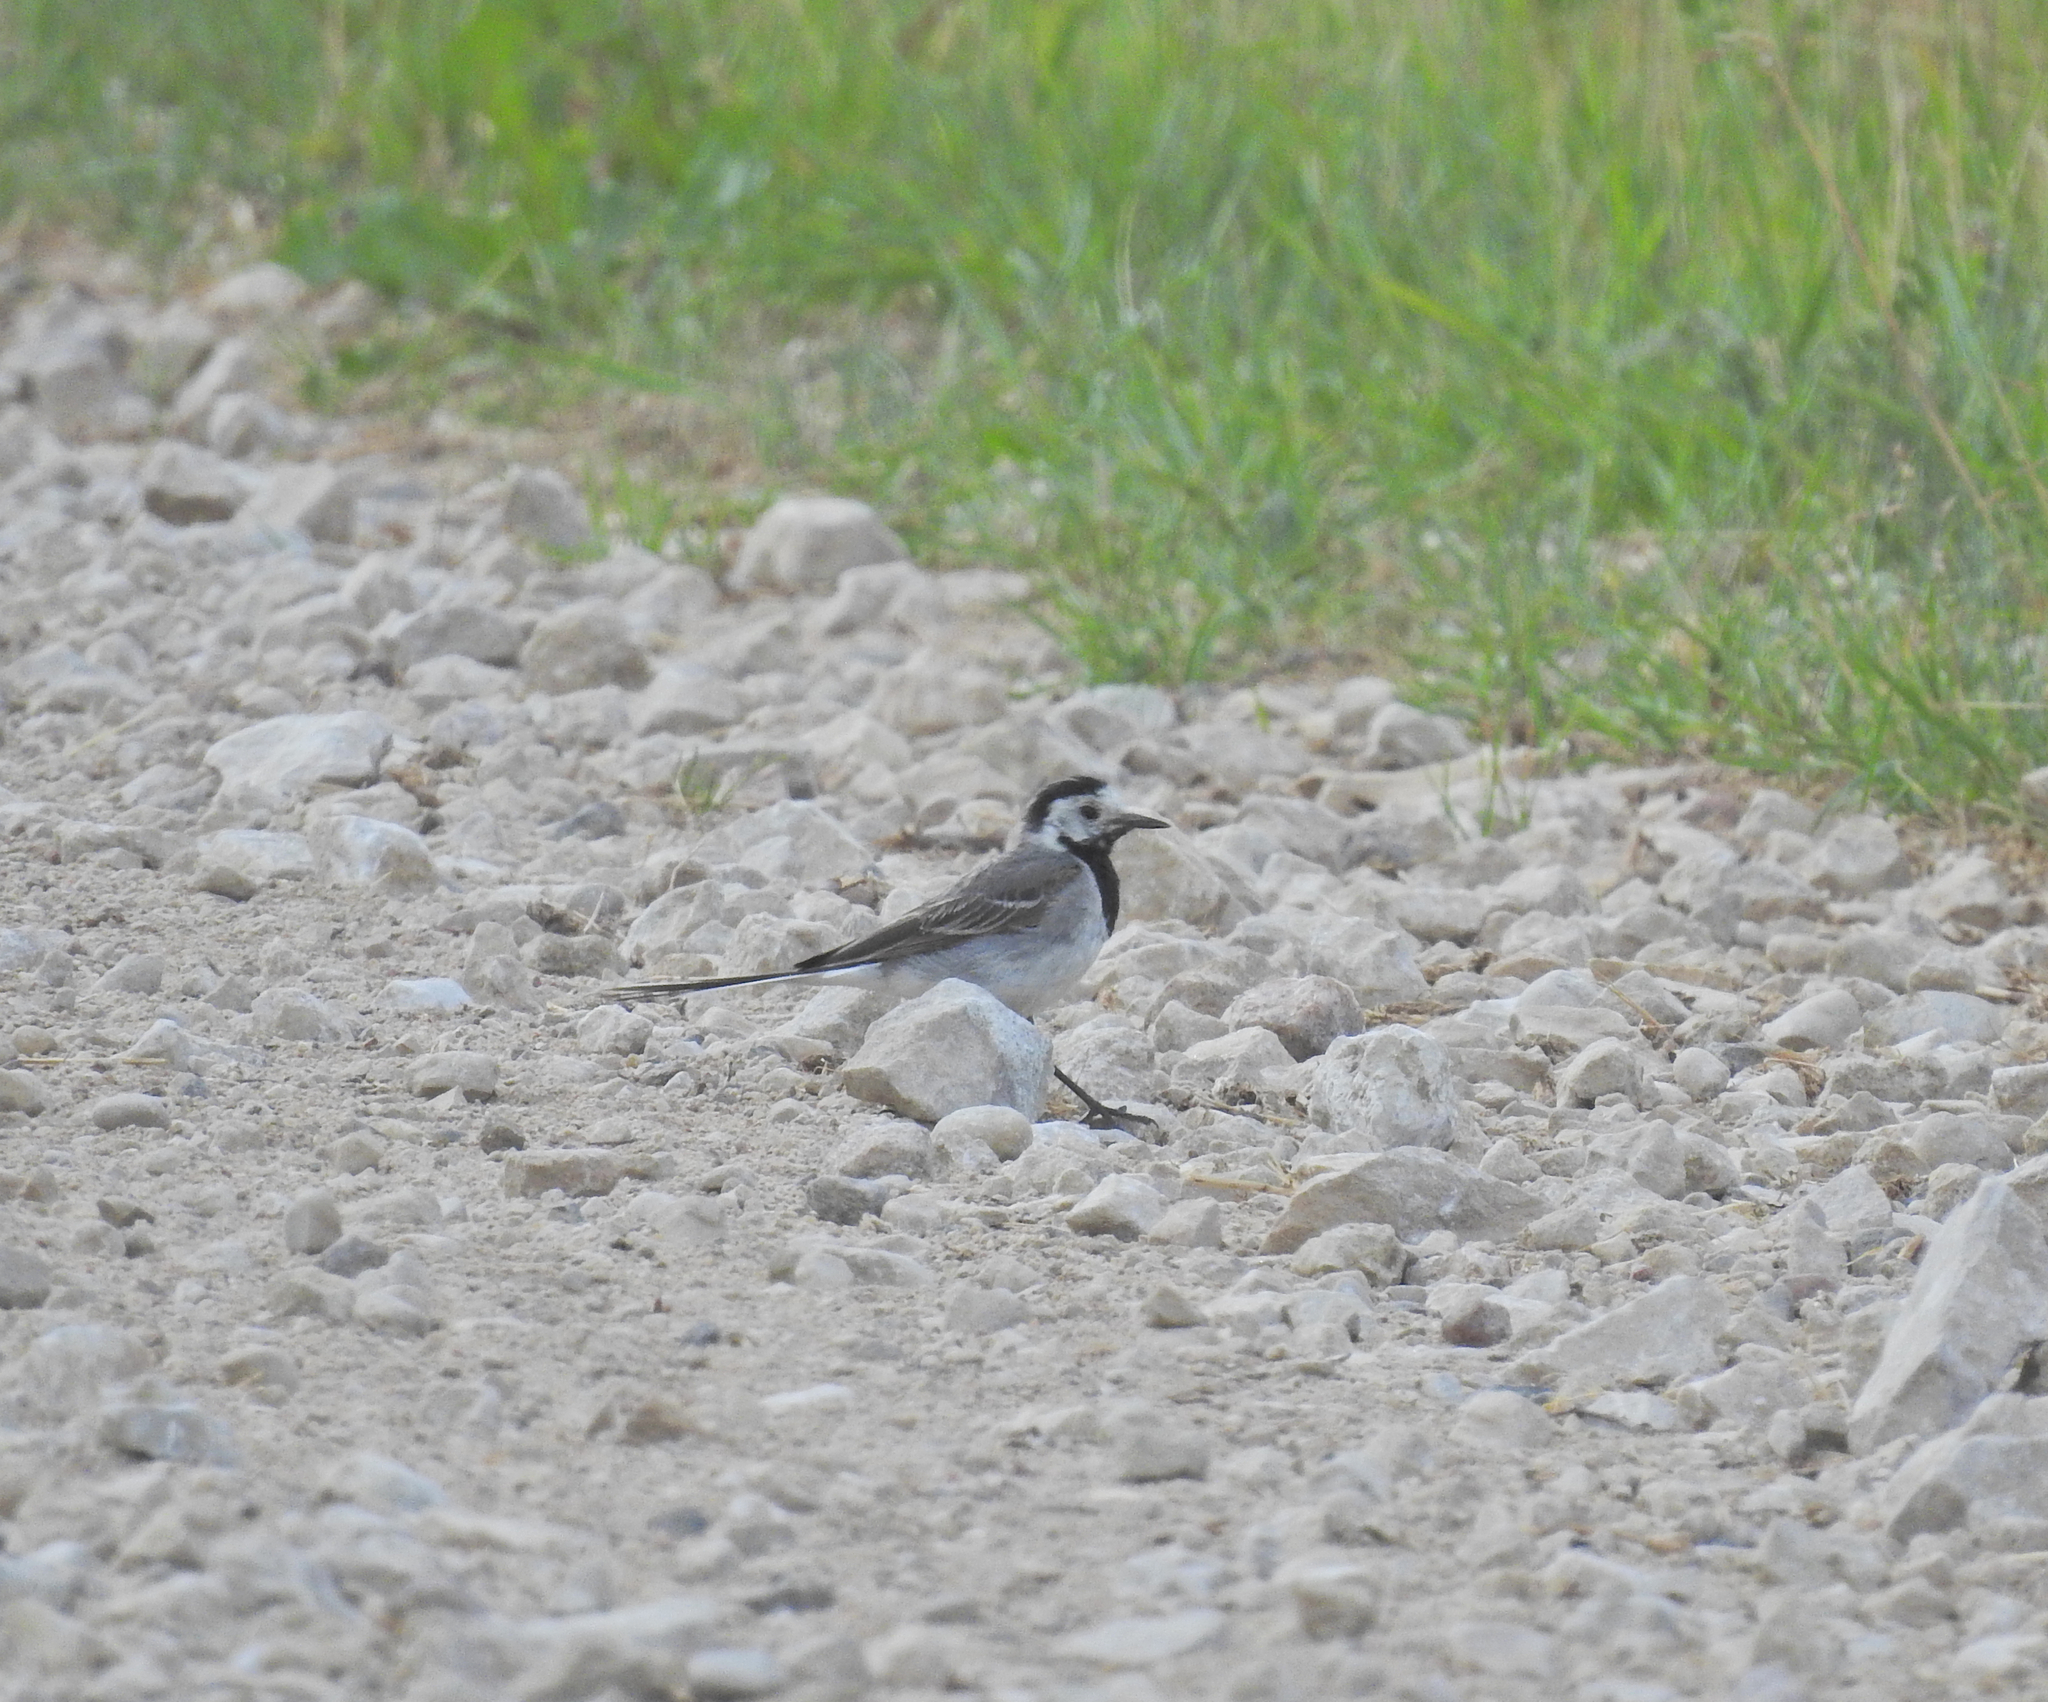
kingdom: Animalia
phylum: Chordata
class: Aves
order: Passeriformes
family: Motacillidae
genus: Motacilla
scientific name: Motacilla alba
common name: White wagtail
